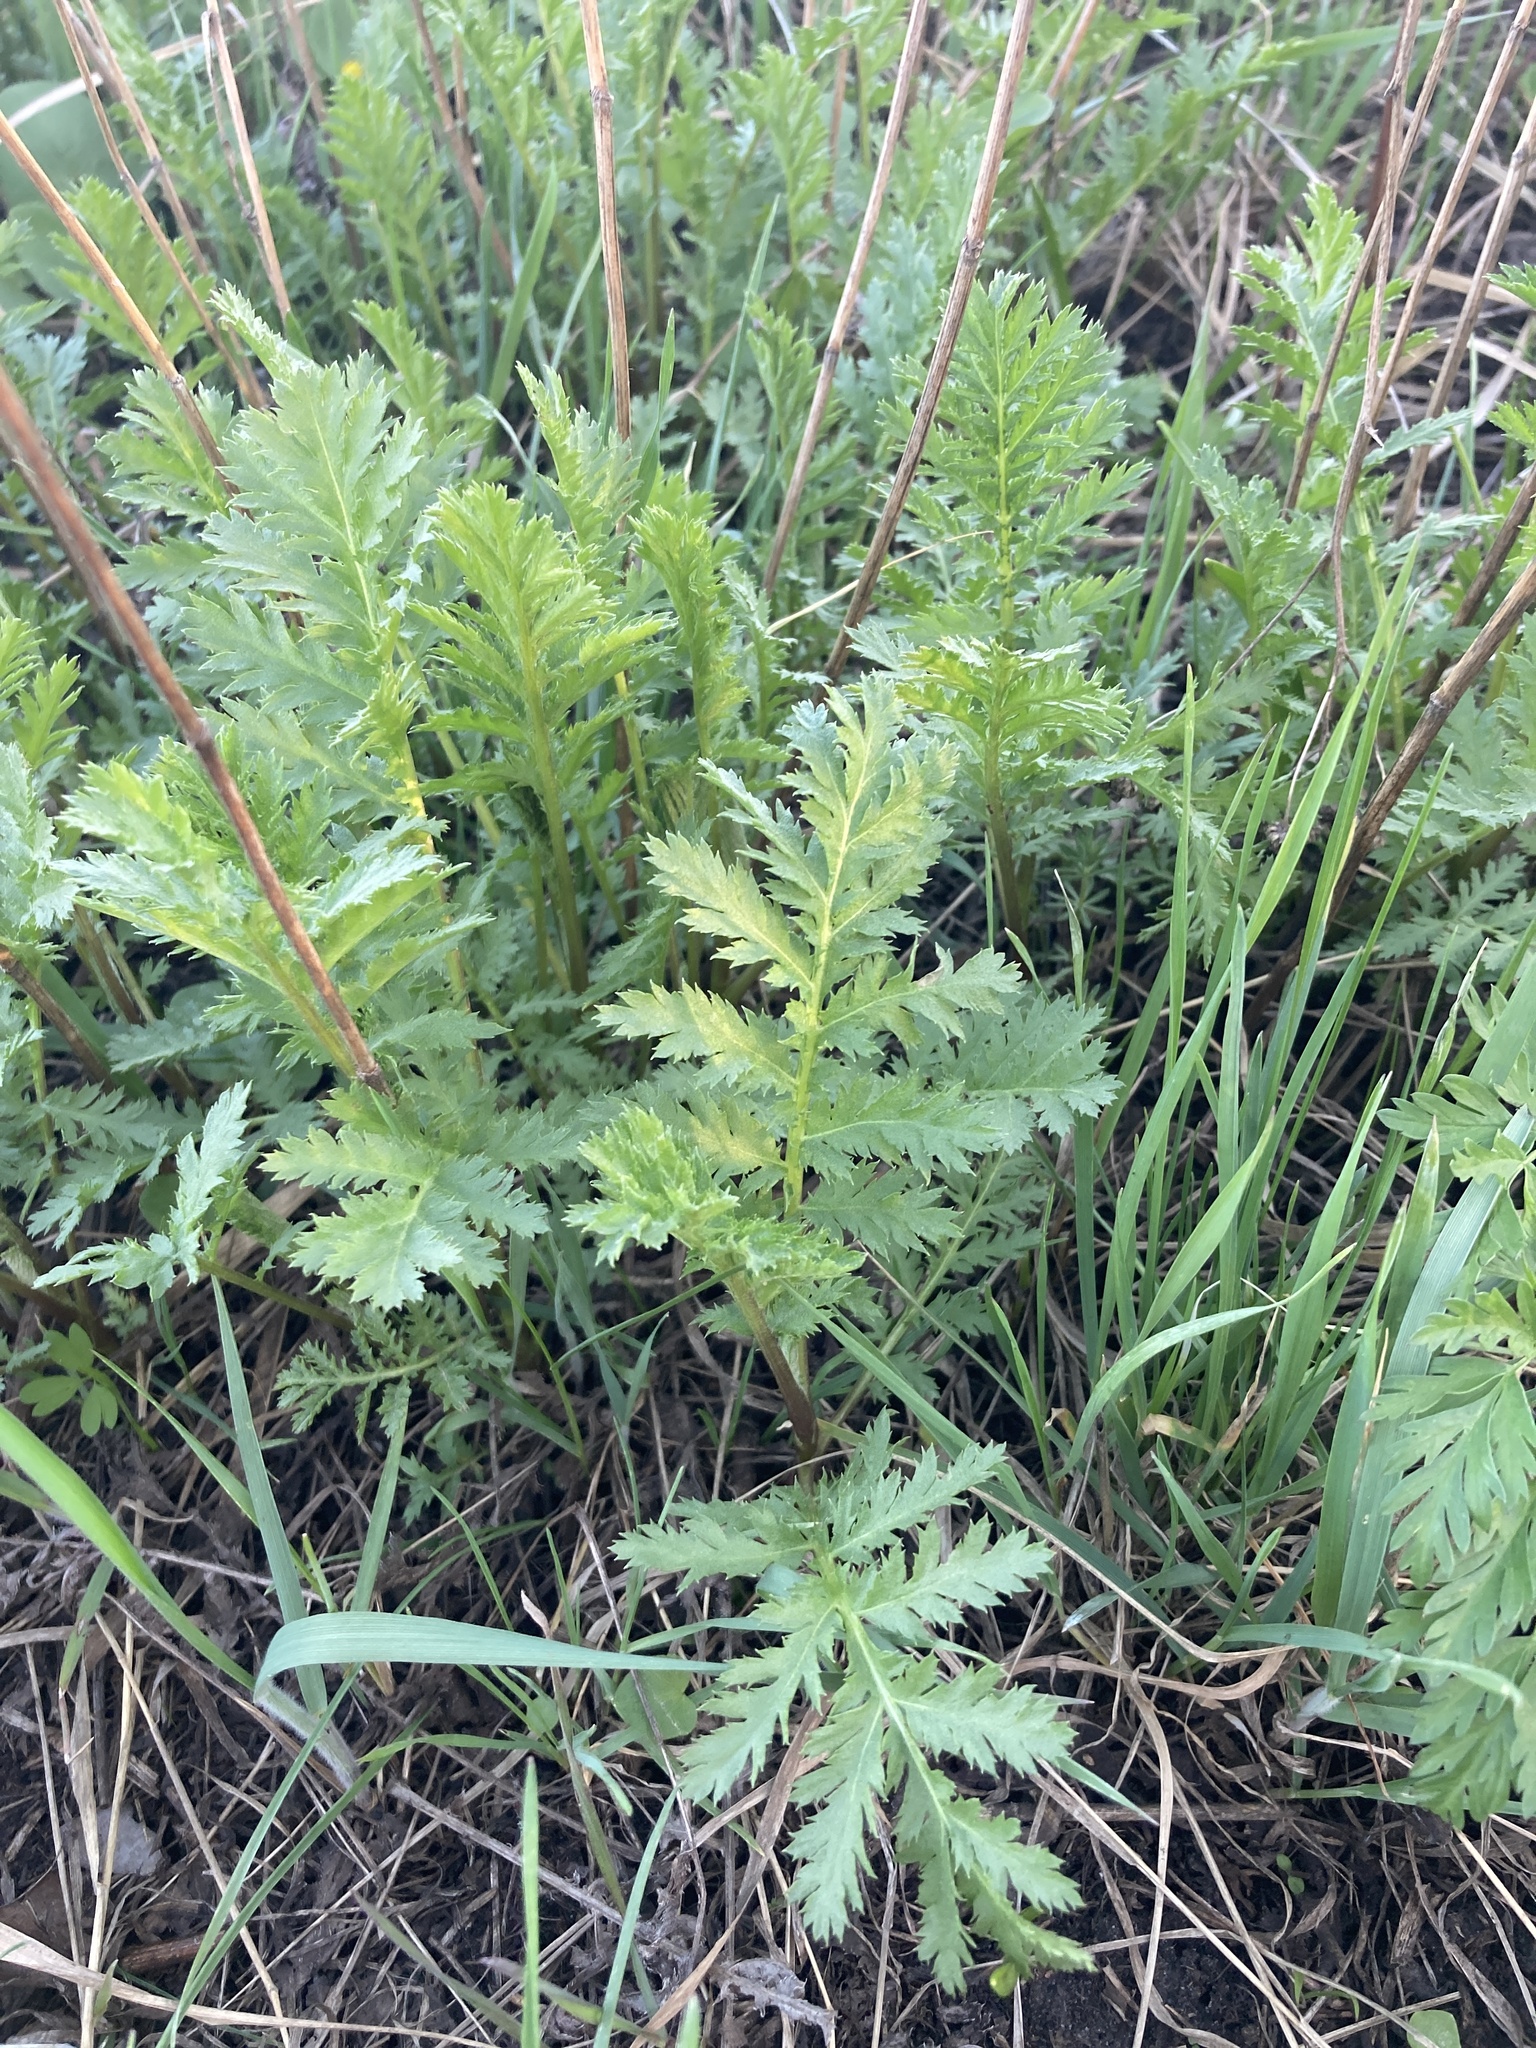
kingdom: Plantae
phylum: Tracheophyta
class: Magnoliopsida
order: Asterales
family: Asteraceae
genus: Tanacetum
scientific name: Tanacetum vulgare
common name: Common tansy
